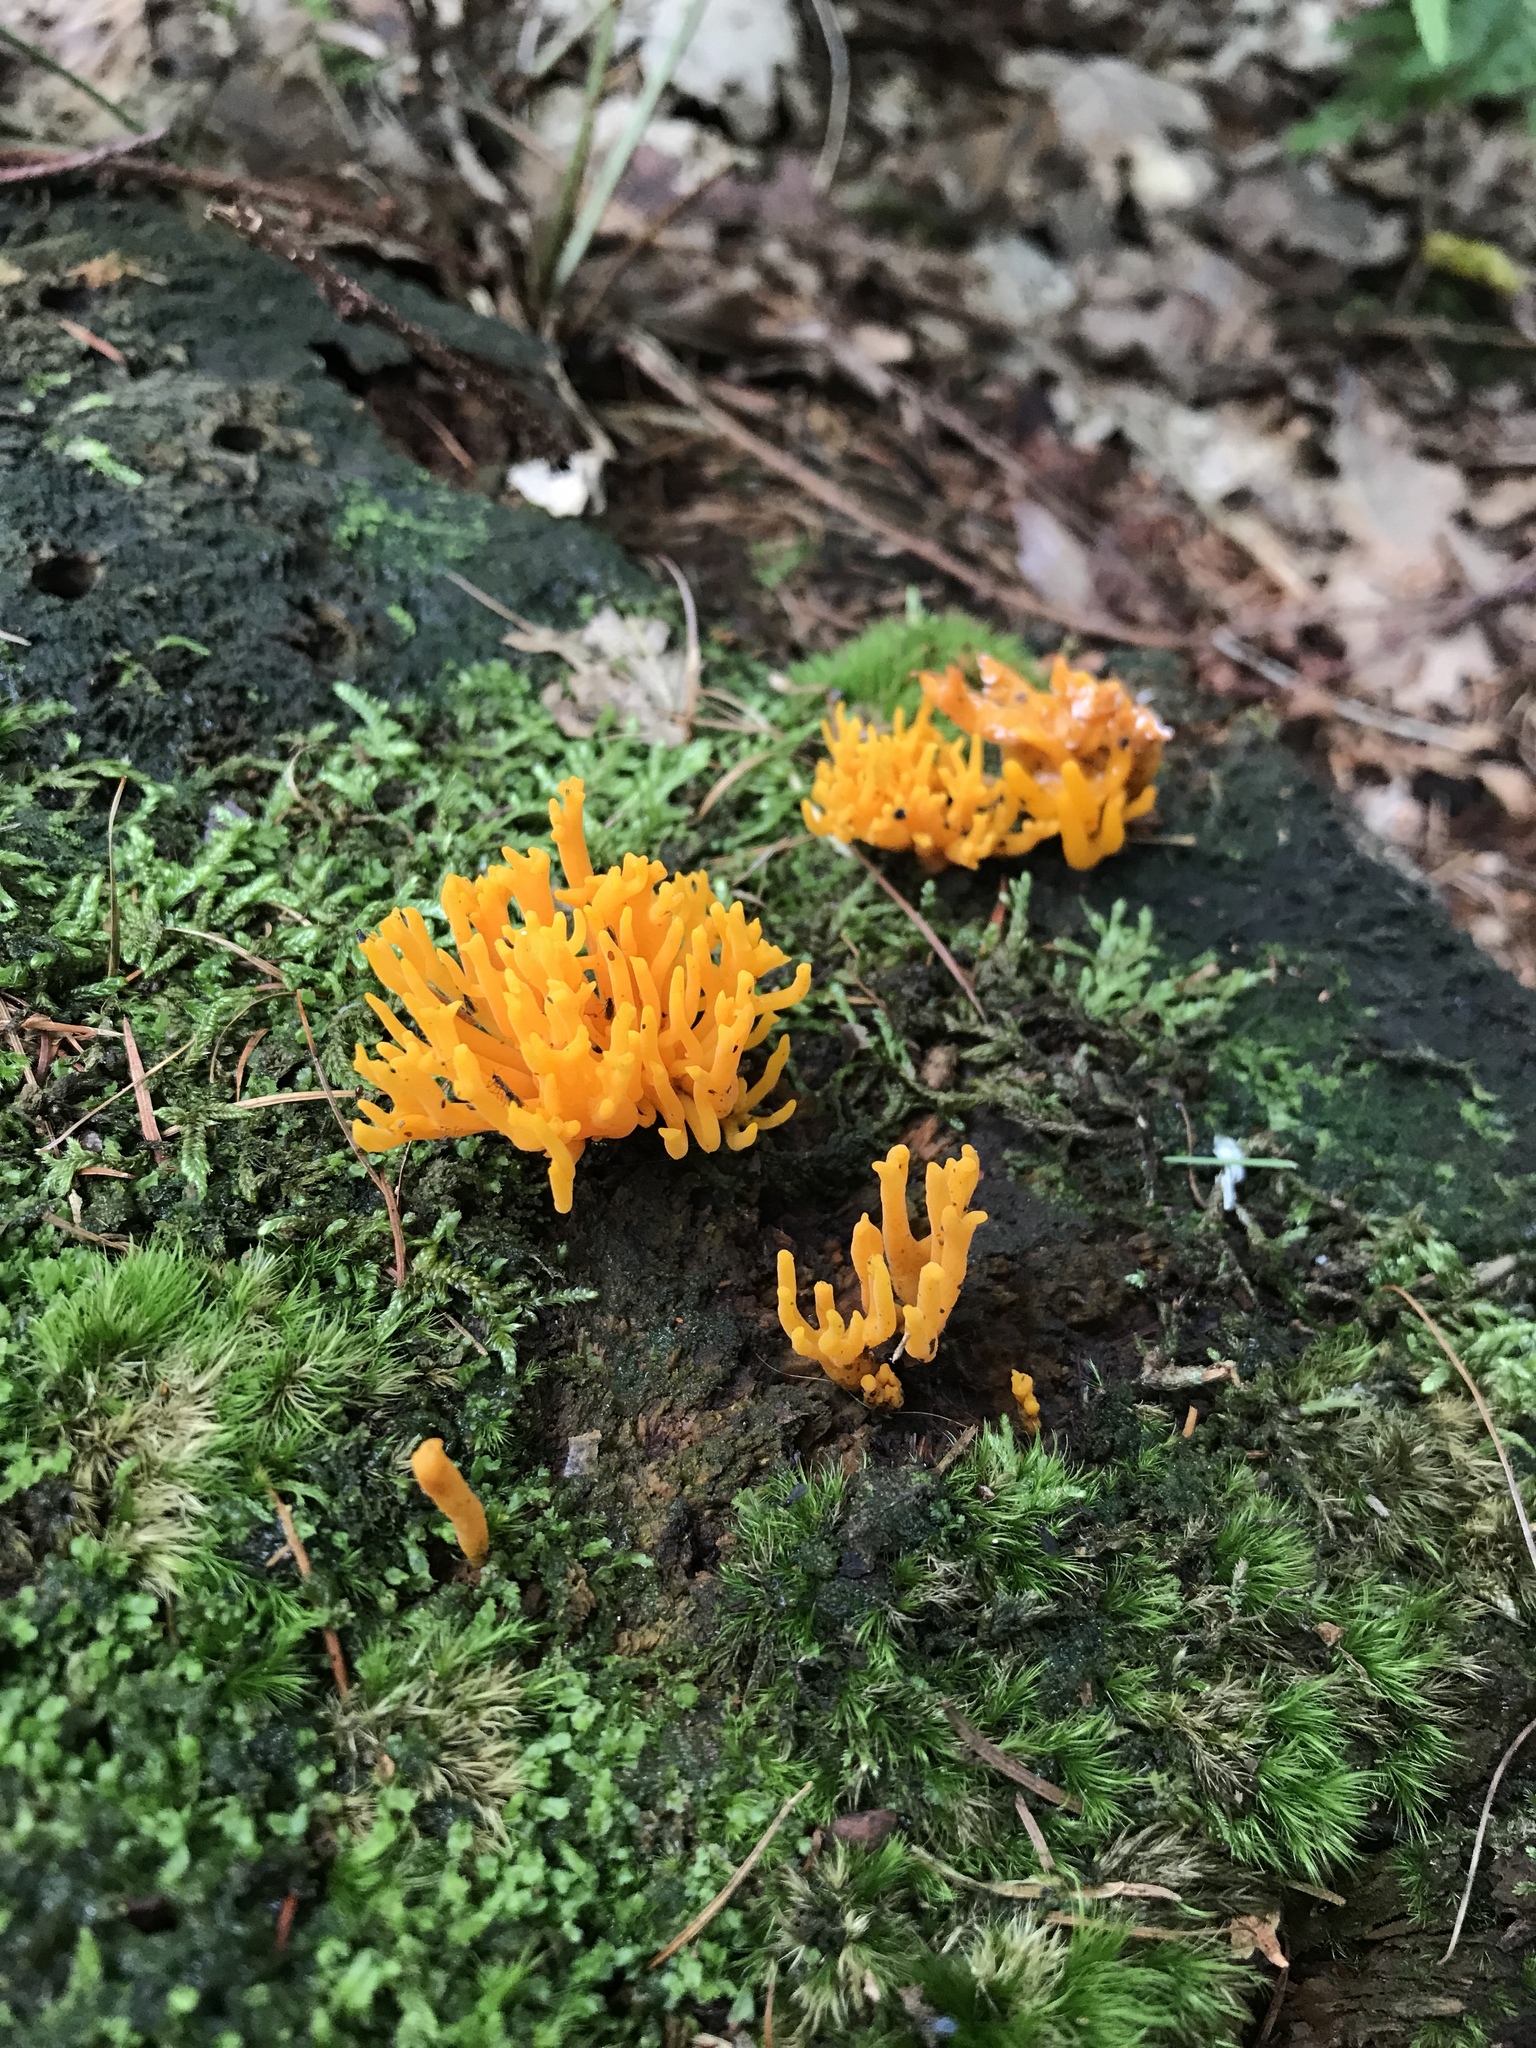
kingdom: Fungi
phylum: Basidiomycota
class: Dacrymycetes
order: Dacrymycetales
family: Dacrymycetaceae
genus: Calocera
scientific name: Calocera viscosa
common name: Yellow stagshorn
